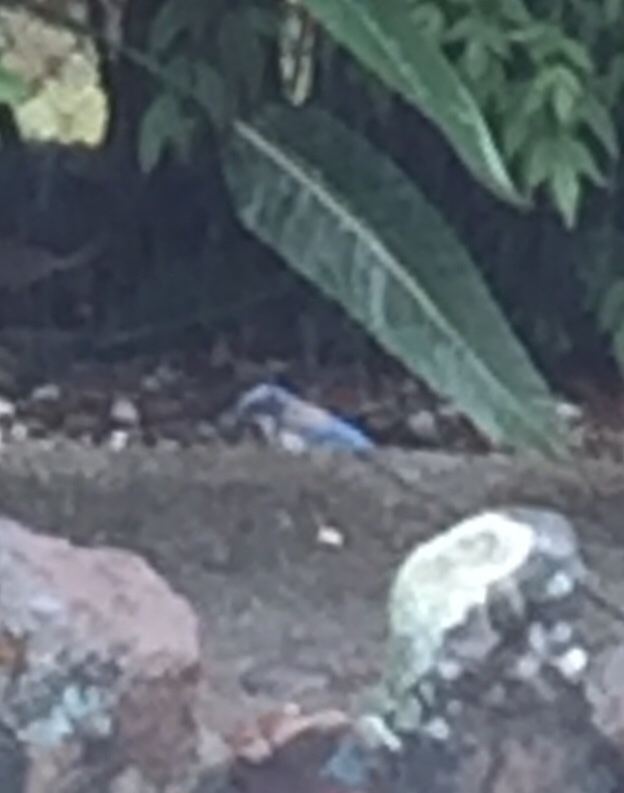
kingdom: Animalia
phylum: Chordata
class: Aves
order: Passeriformes
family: Corvidae
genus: Aphelocoma
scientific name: Aphelocoma californica
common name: California scrub-jay
